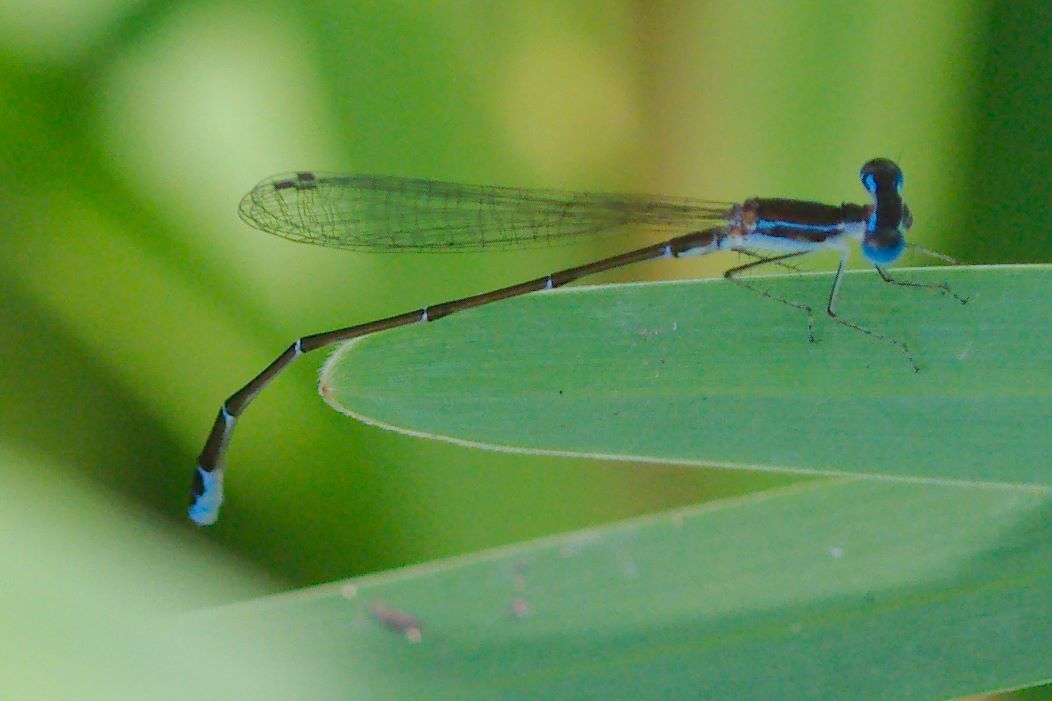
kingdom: Animalia
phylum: Arthropoda
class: Insecta
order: Odonata
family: Coenagrionidae
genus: Nehalennia
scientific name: Nehalennia pallidula
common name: Everglades sprite
